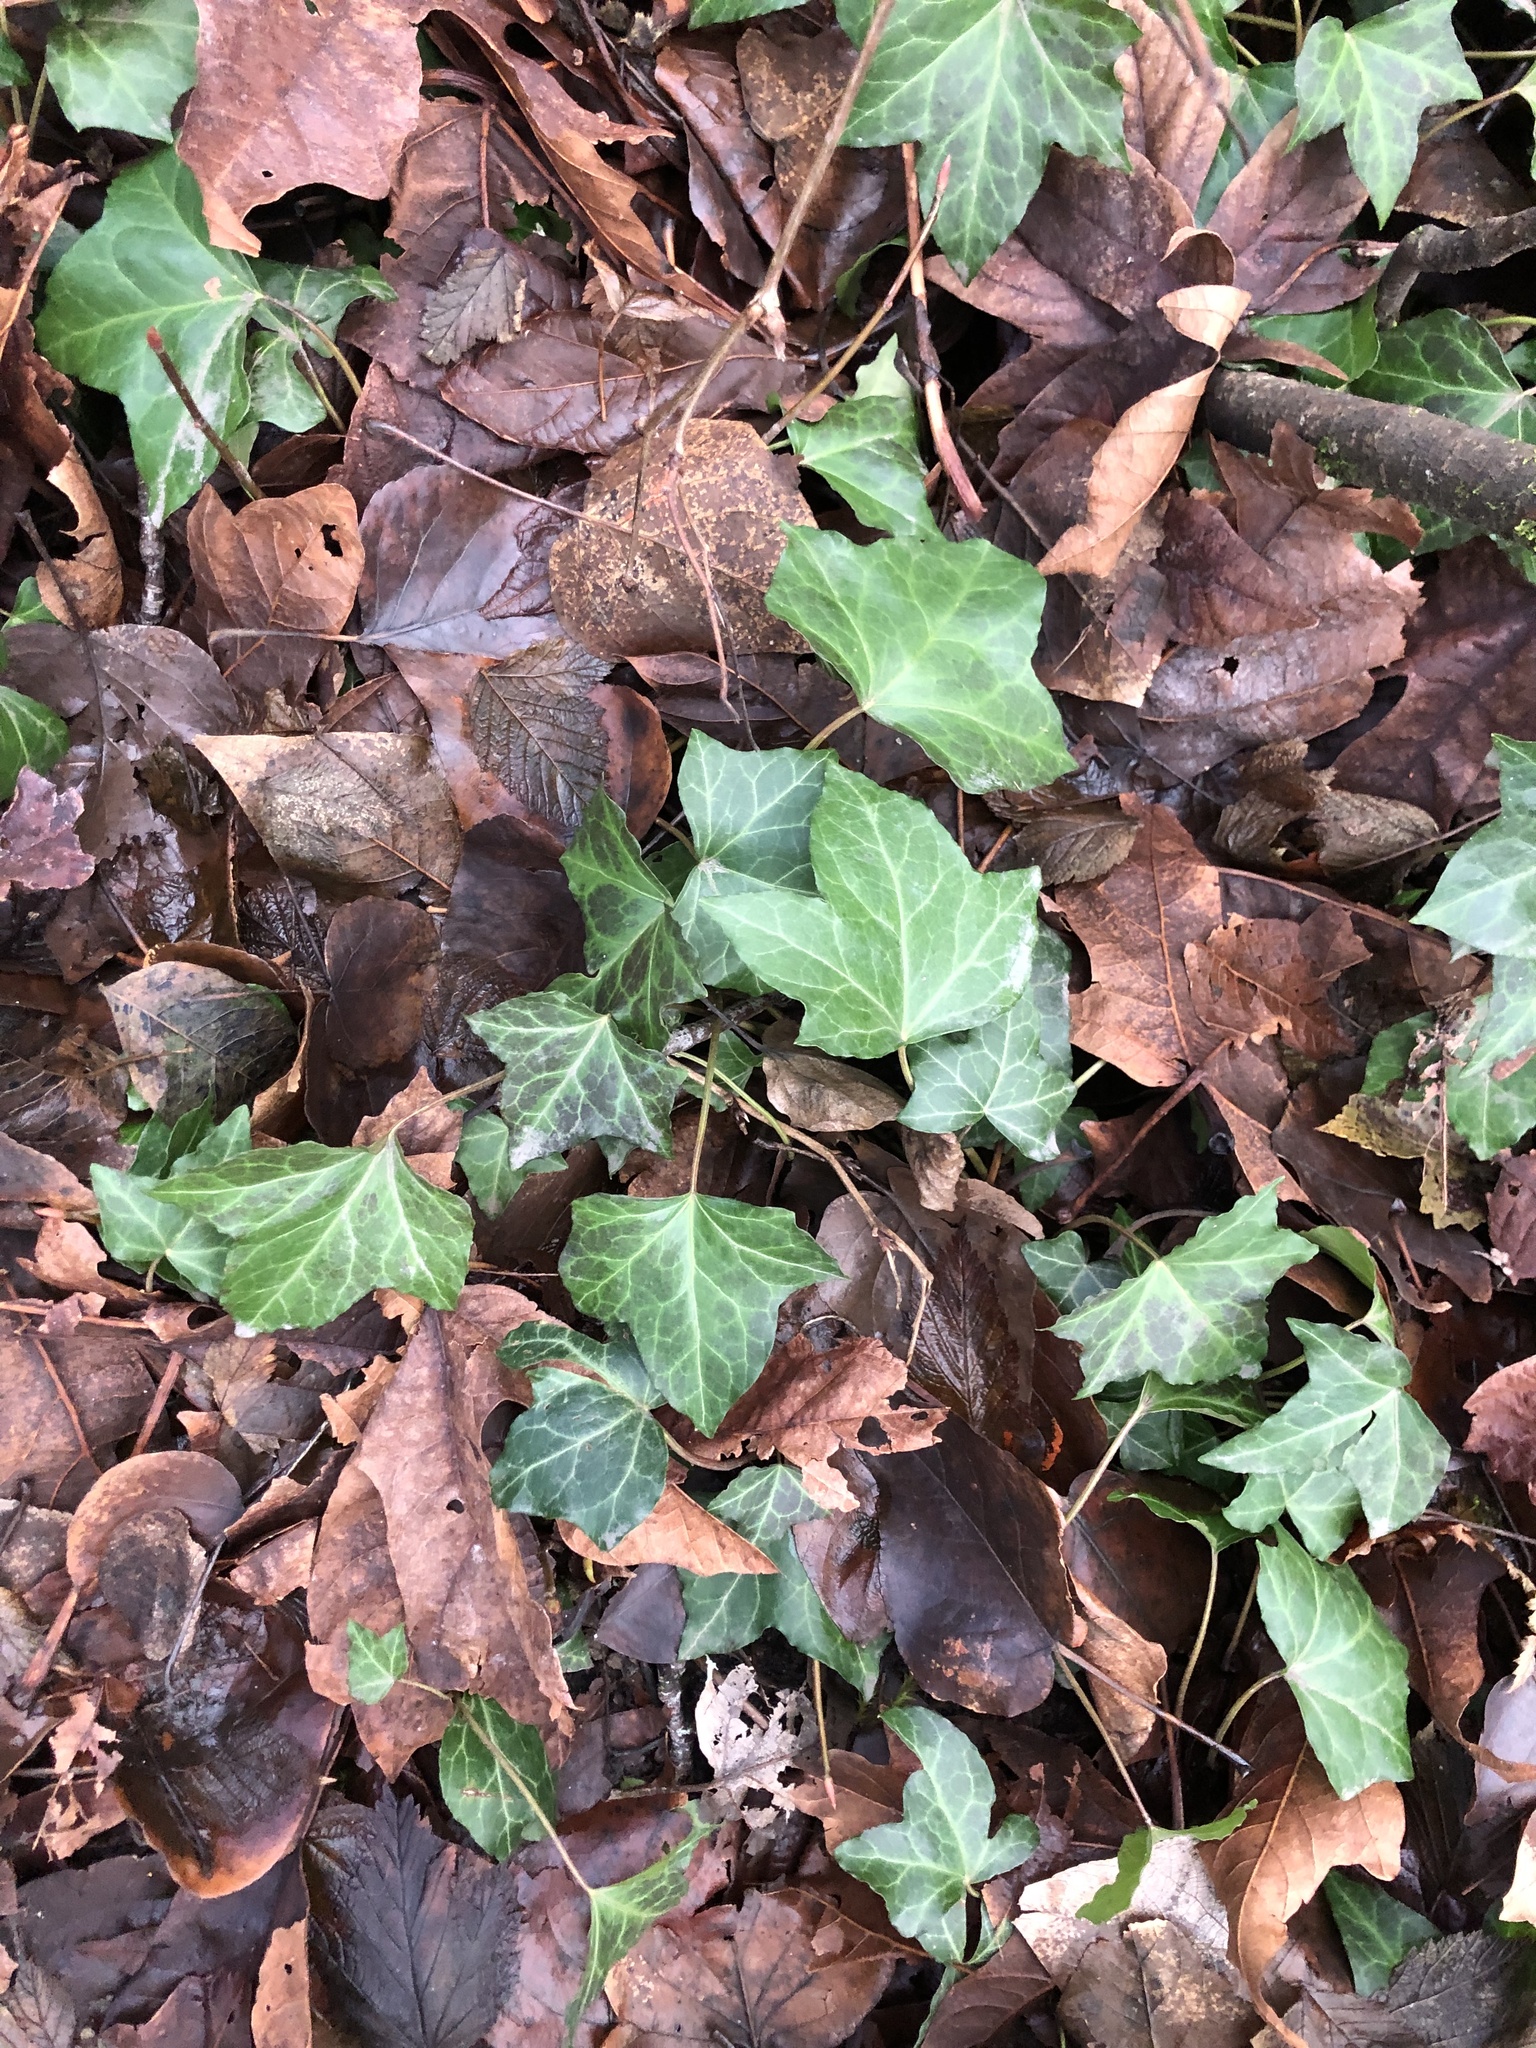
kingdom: Plantae
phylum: Tracheophyta
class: Magnoliopsida
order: Apiales
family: Araliaceae
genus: Hedera
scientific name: Hedera helix
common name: Ivy
